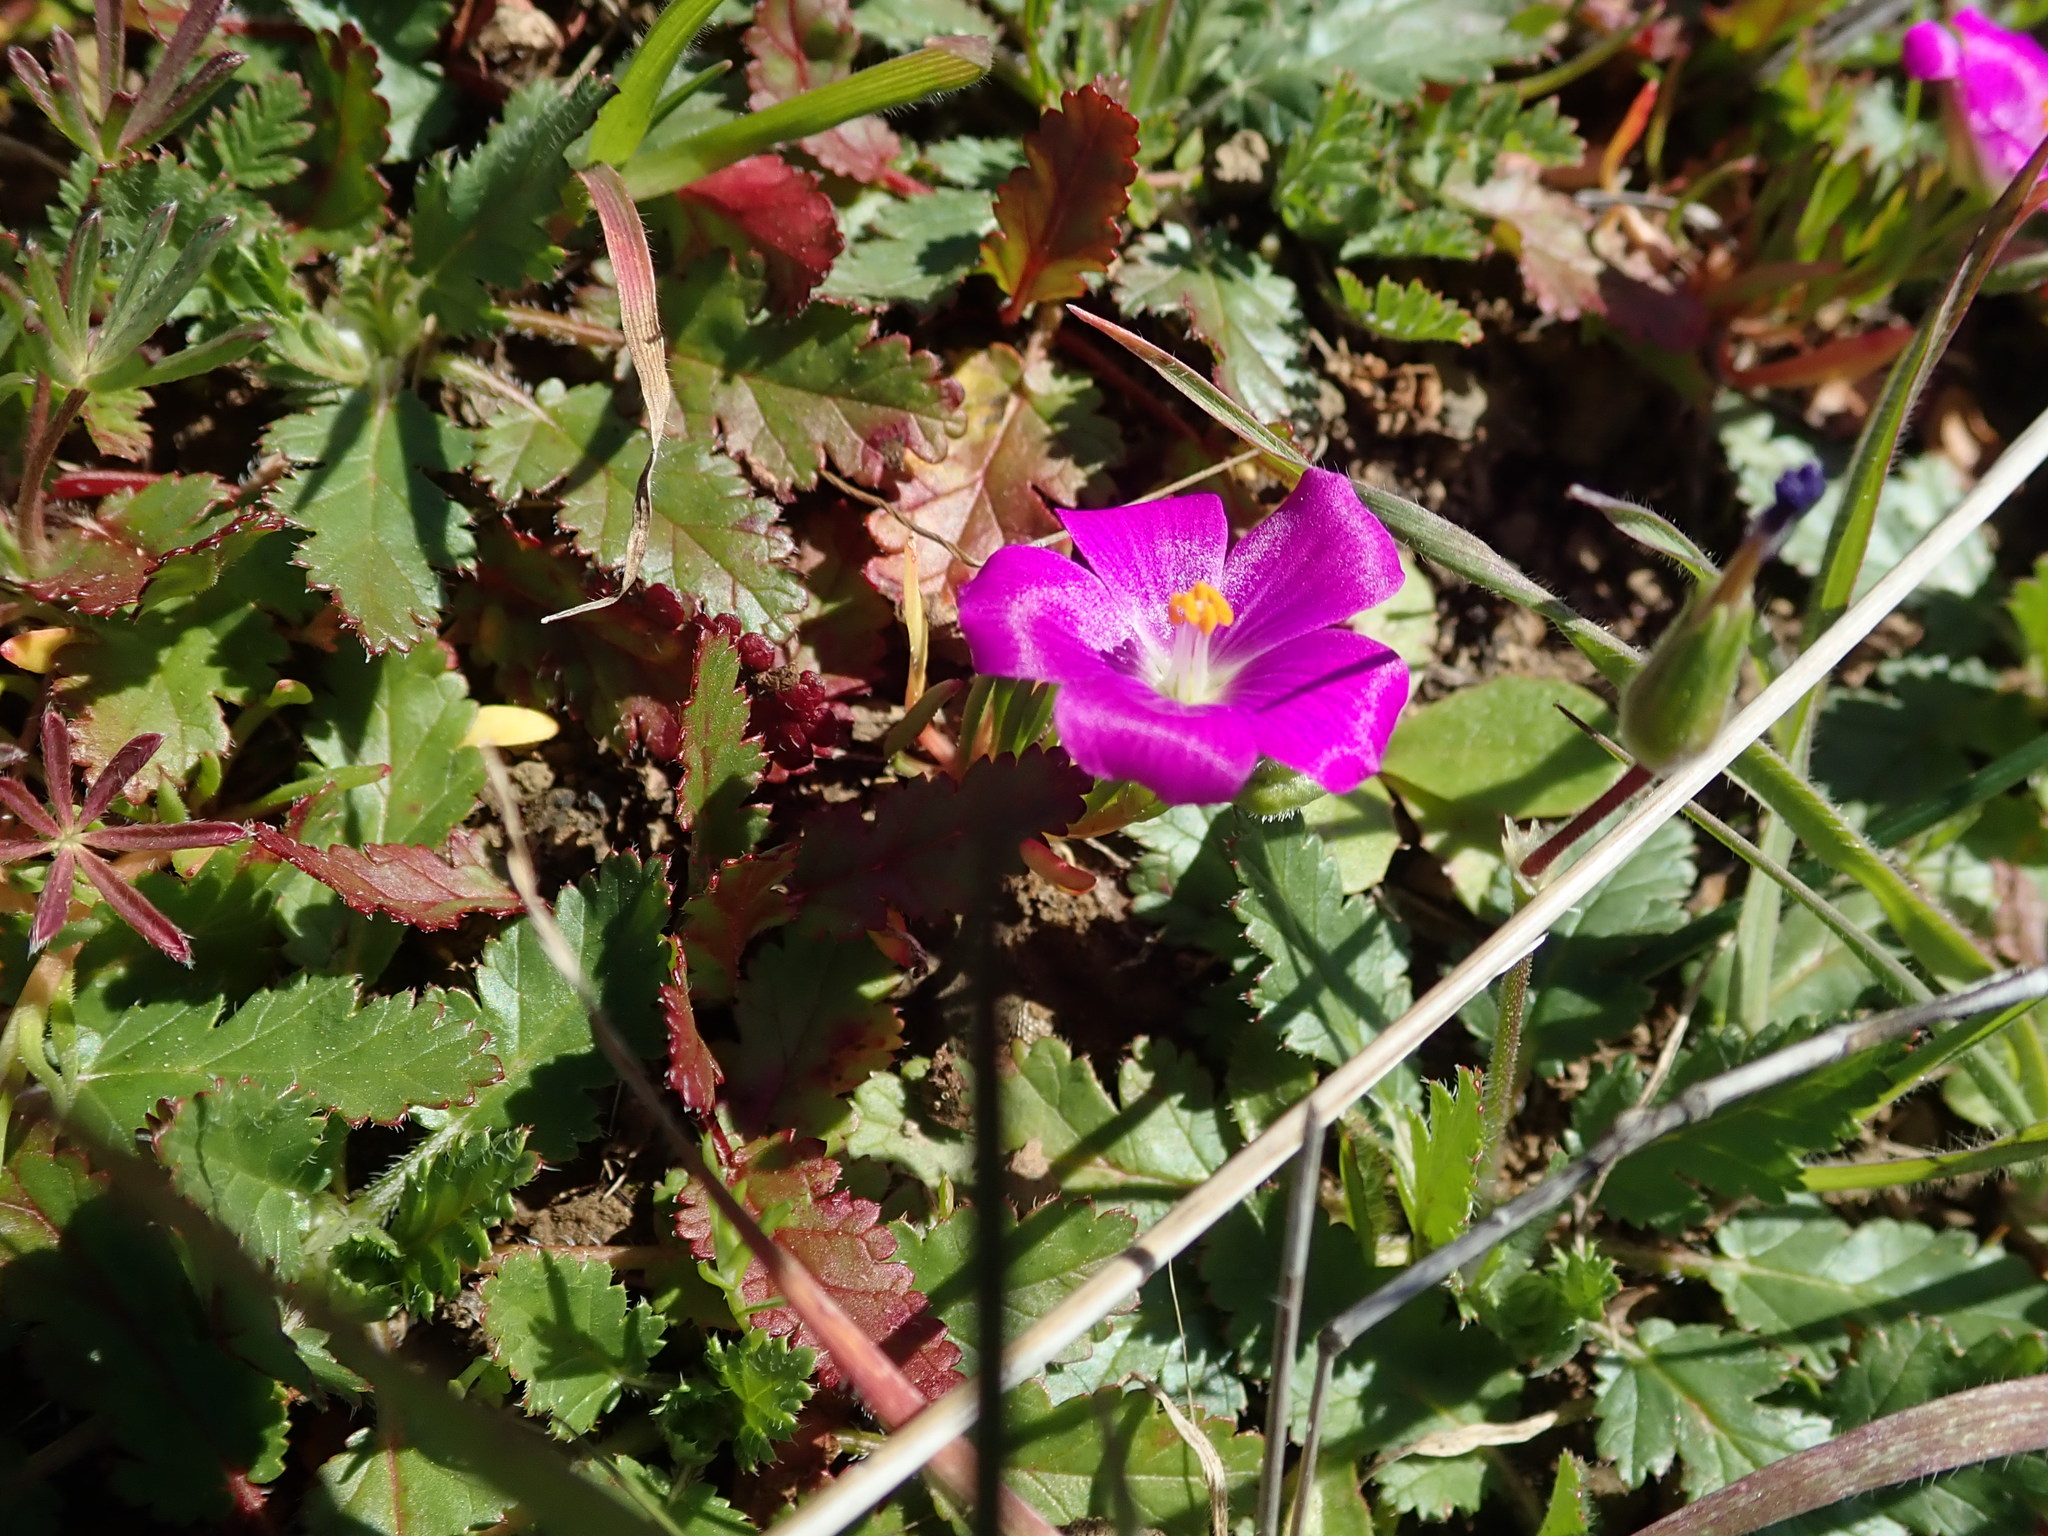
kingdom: Plantae
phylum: Tracheophyta
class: Magnoliopsida
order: Caryophyllales
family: Montiaceae
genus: Calandrinia
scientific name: Calandrinia menziesii
